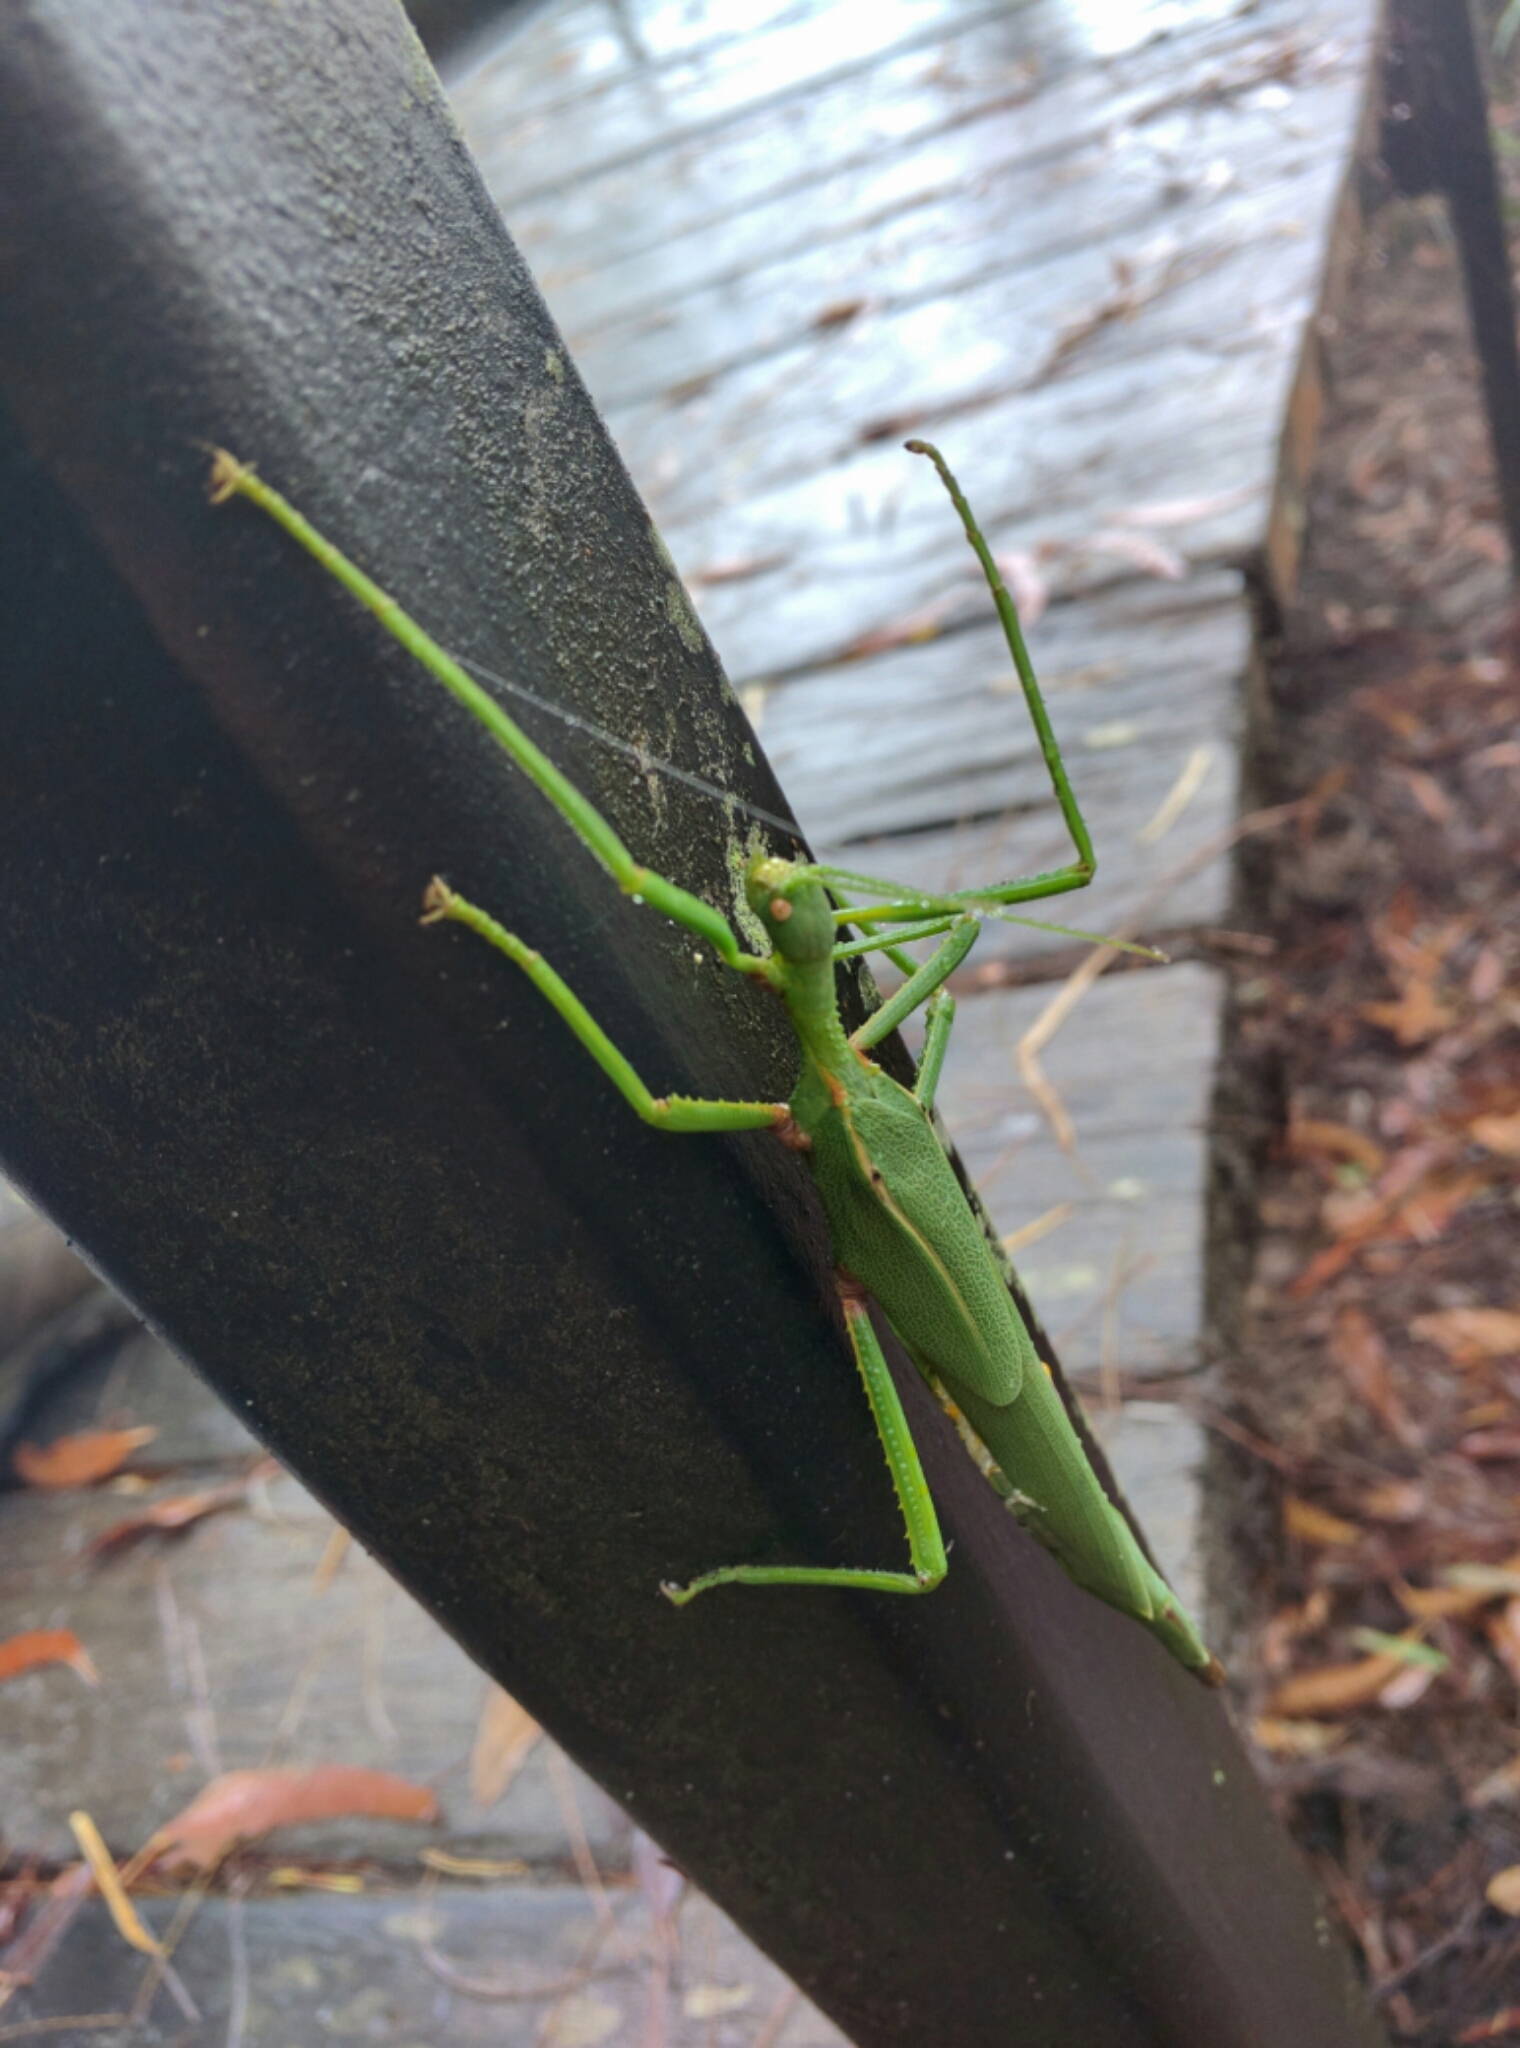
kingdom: Animalia
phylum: Arthropoda
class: Insecta
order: Phasmida
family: Phasmatidae
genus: Podacanthus
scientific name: Podacanthus viridiroseus
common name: Red-winged stick-insect
